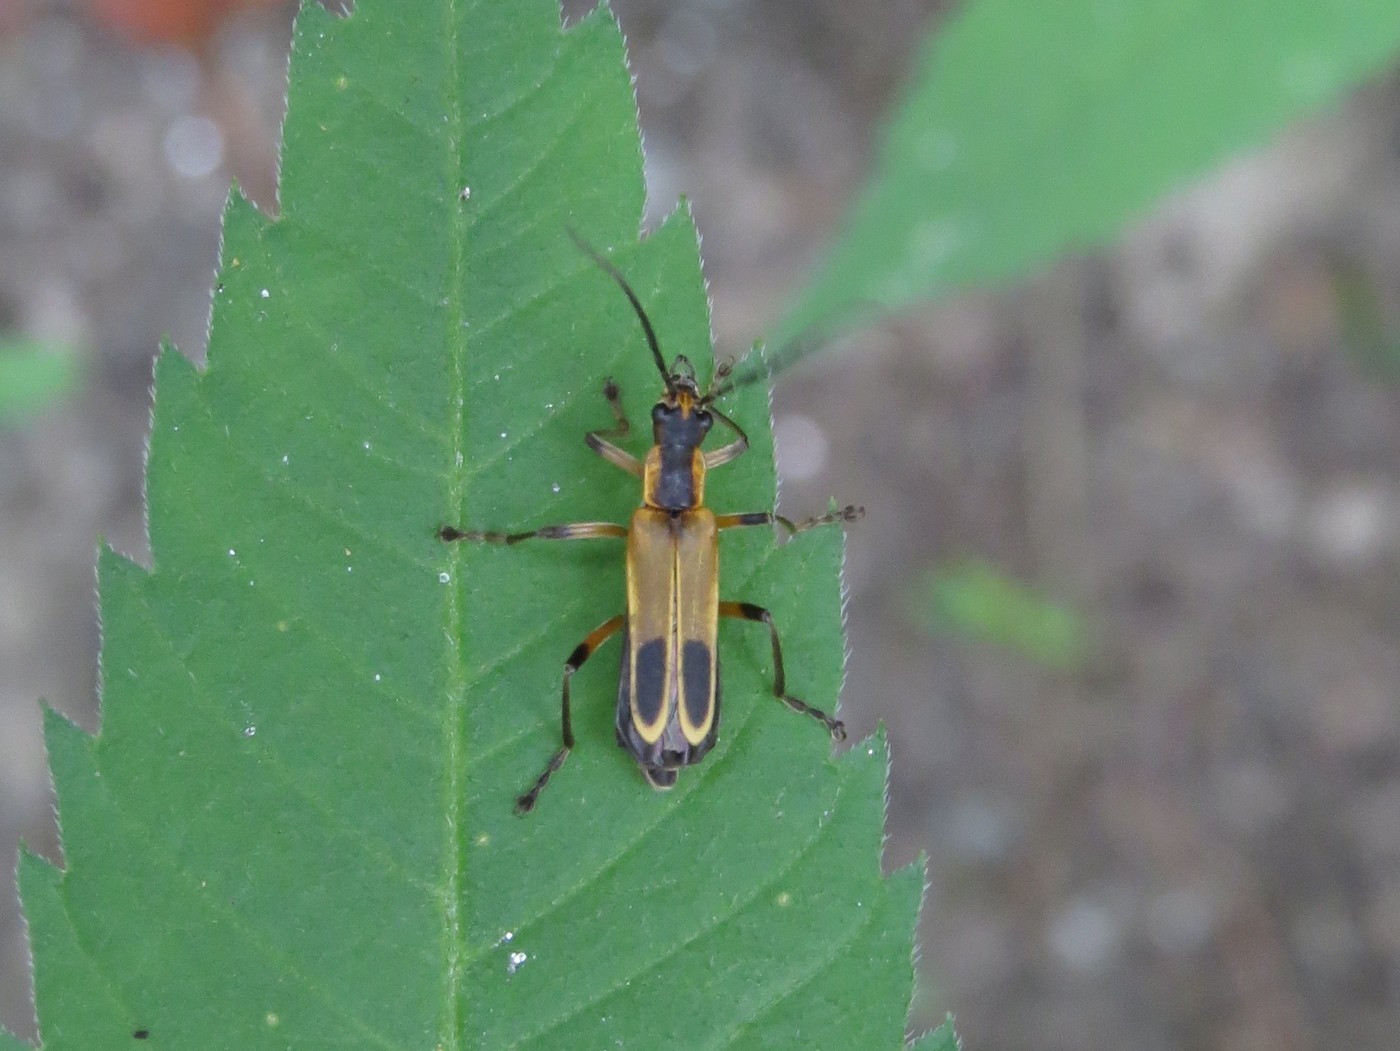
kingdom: Animalia
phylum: Arthropoda
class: Insecta
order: Coleoptera
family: Cantharidae
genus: Chauliognathus
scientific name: Chauliognathus marginatus
